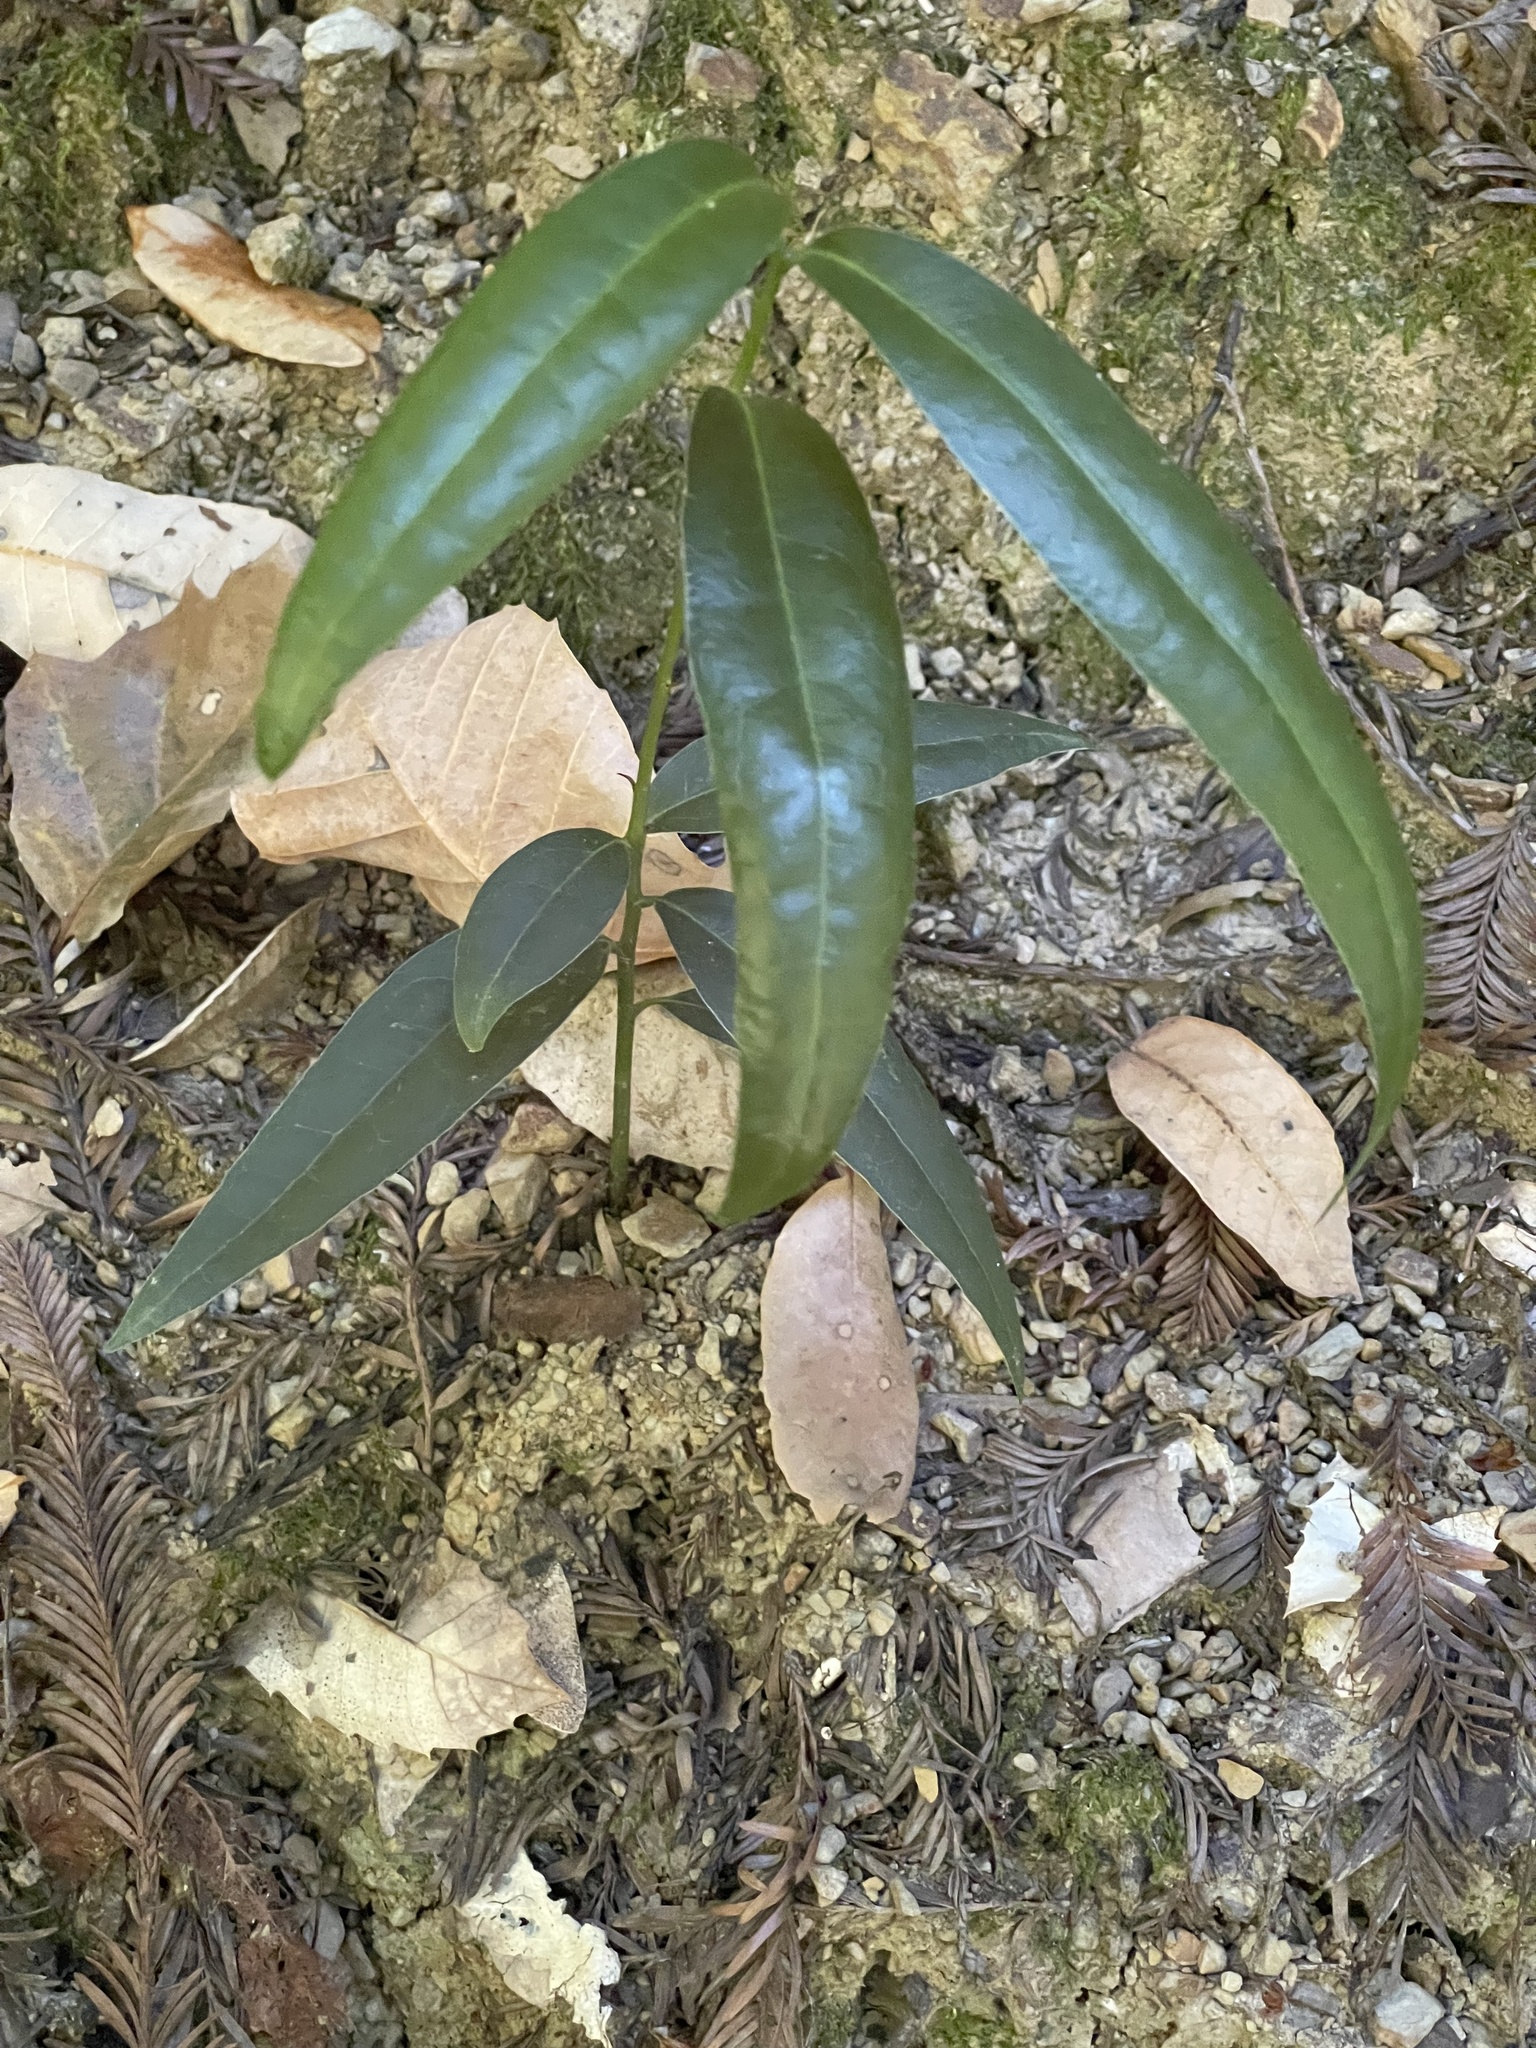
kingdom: Plantae
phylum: Tracheophyta
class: Magnoliopsida
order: Laurales
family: Lauraceae
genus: Umbellularia
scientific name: Umbellularia californica
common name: California bay
